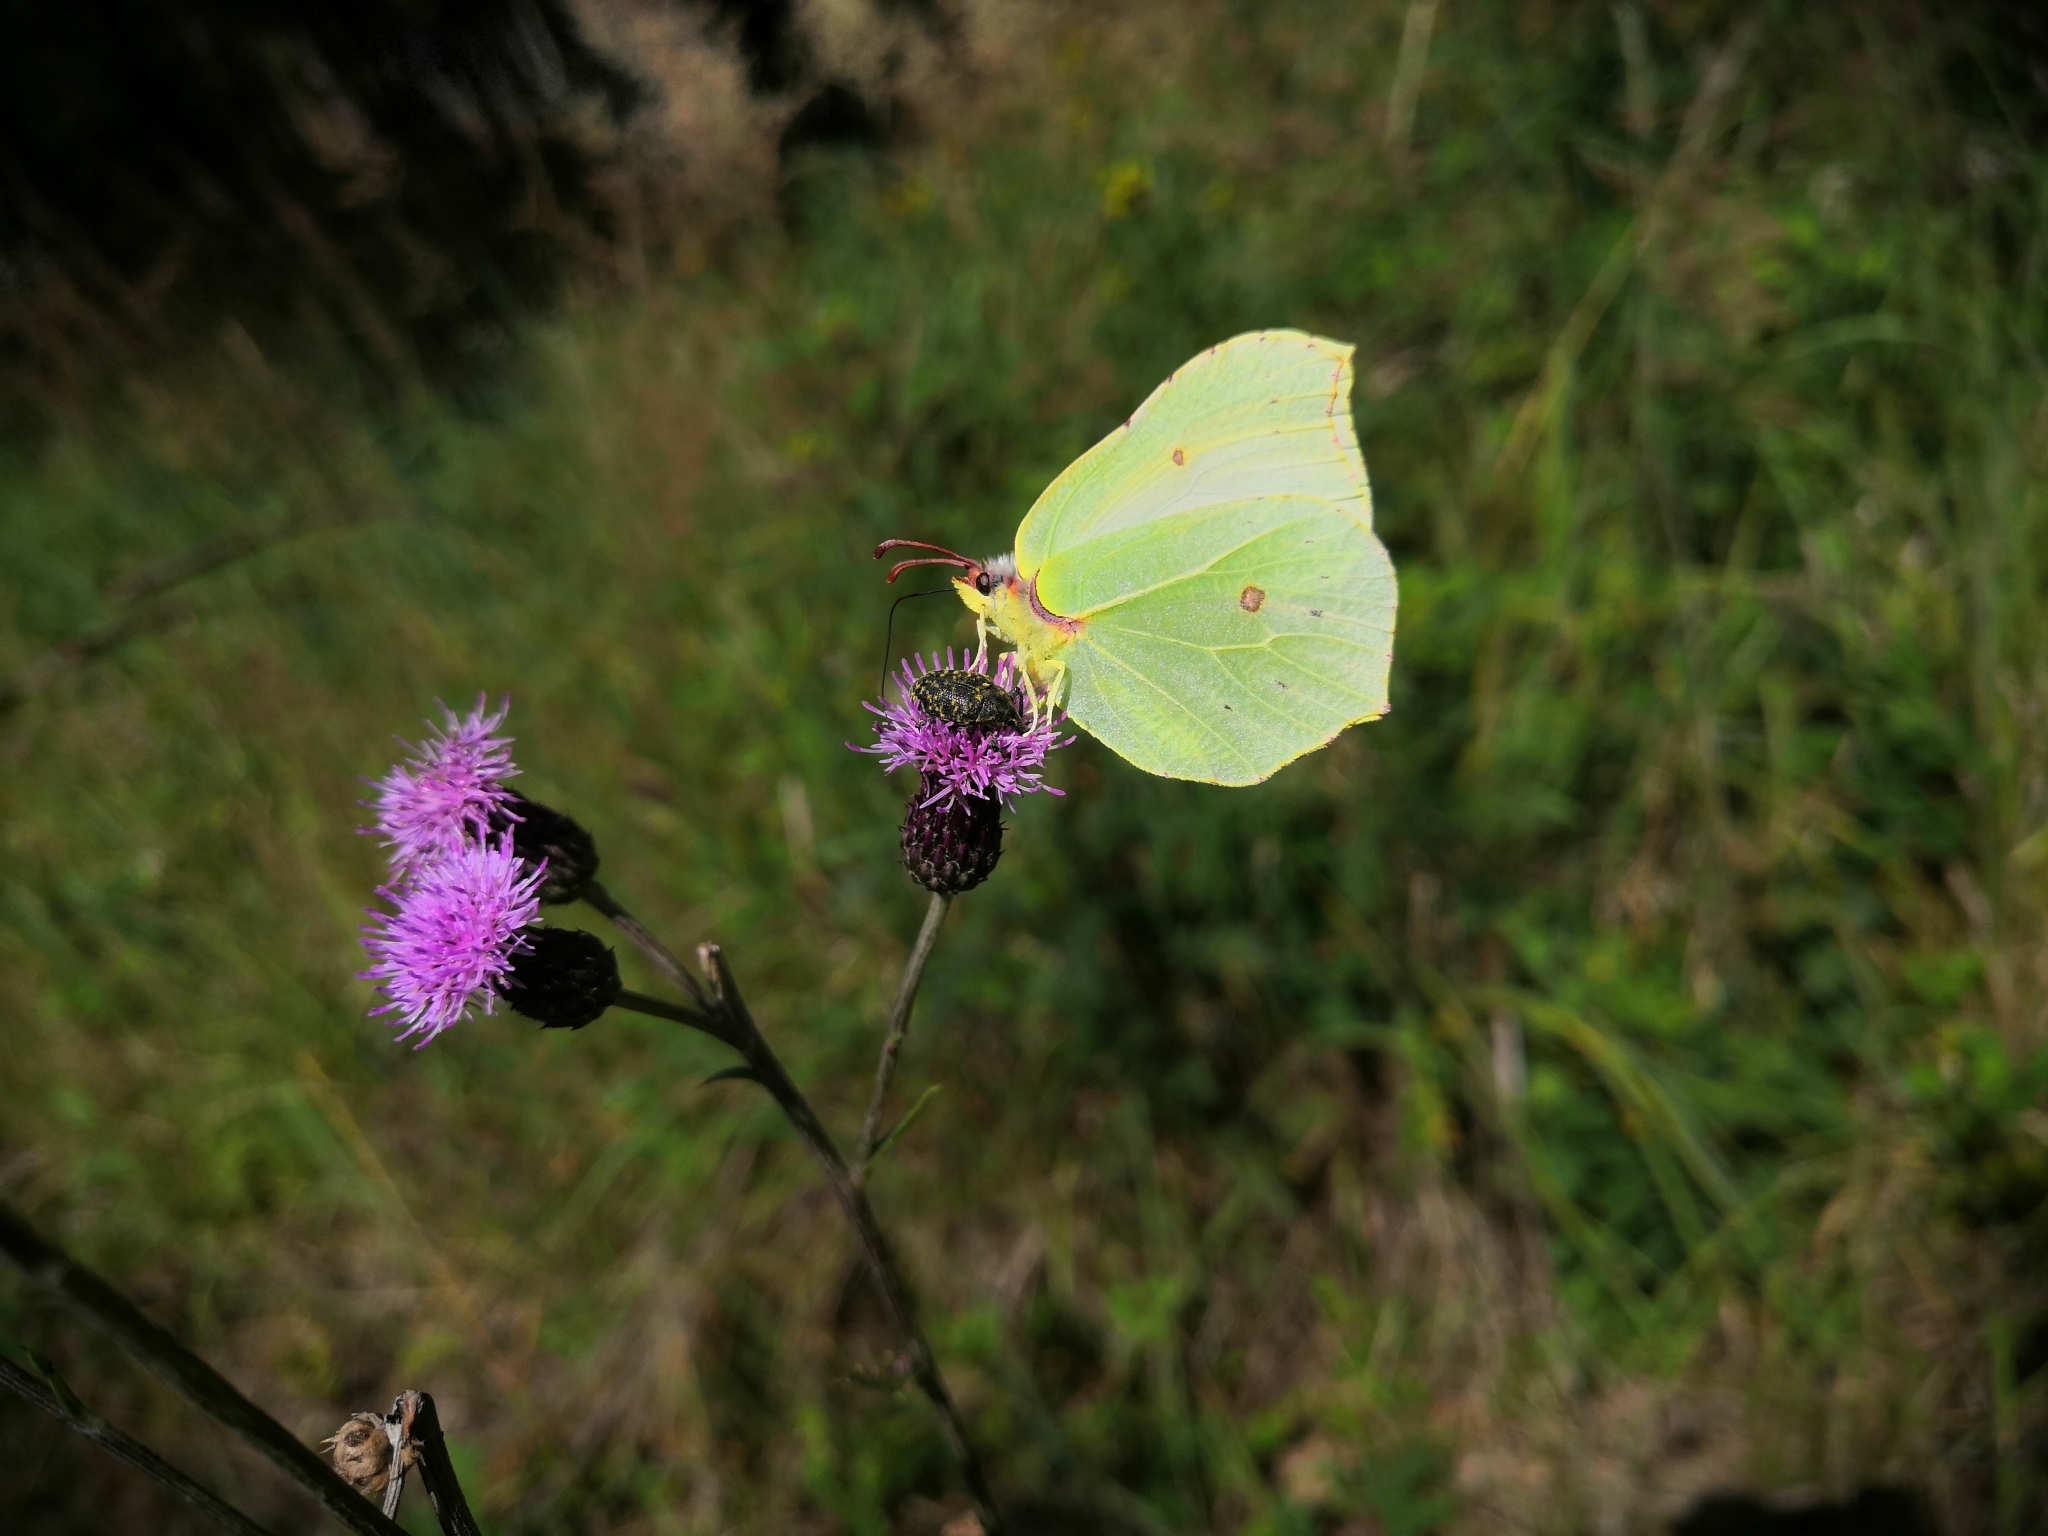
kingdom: Animalia
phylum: Arthropoda
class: Insecta
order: Lepidoptera
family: Pieridae
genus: Gonepteryx
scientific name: Gonepteryx rhamni
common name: Brimstone
